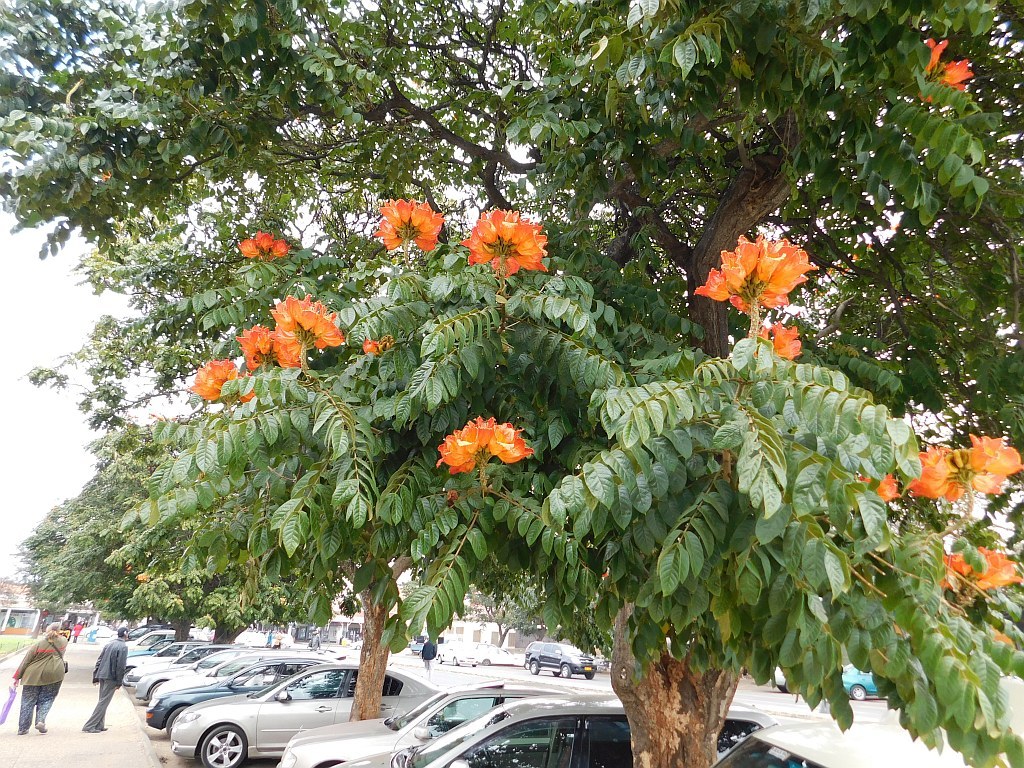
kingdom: Plantae
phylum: Tracheophyta
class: Magnoliopsida
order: Lamiales
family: Bignoniaceae
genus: Spathodea
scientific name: Spathodea campanulata
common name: African tuliptree
